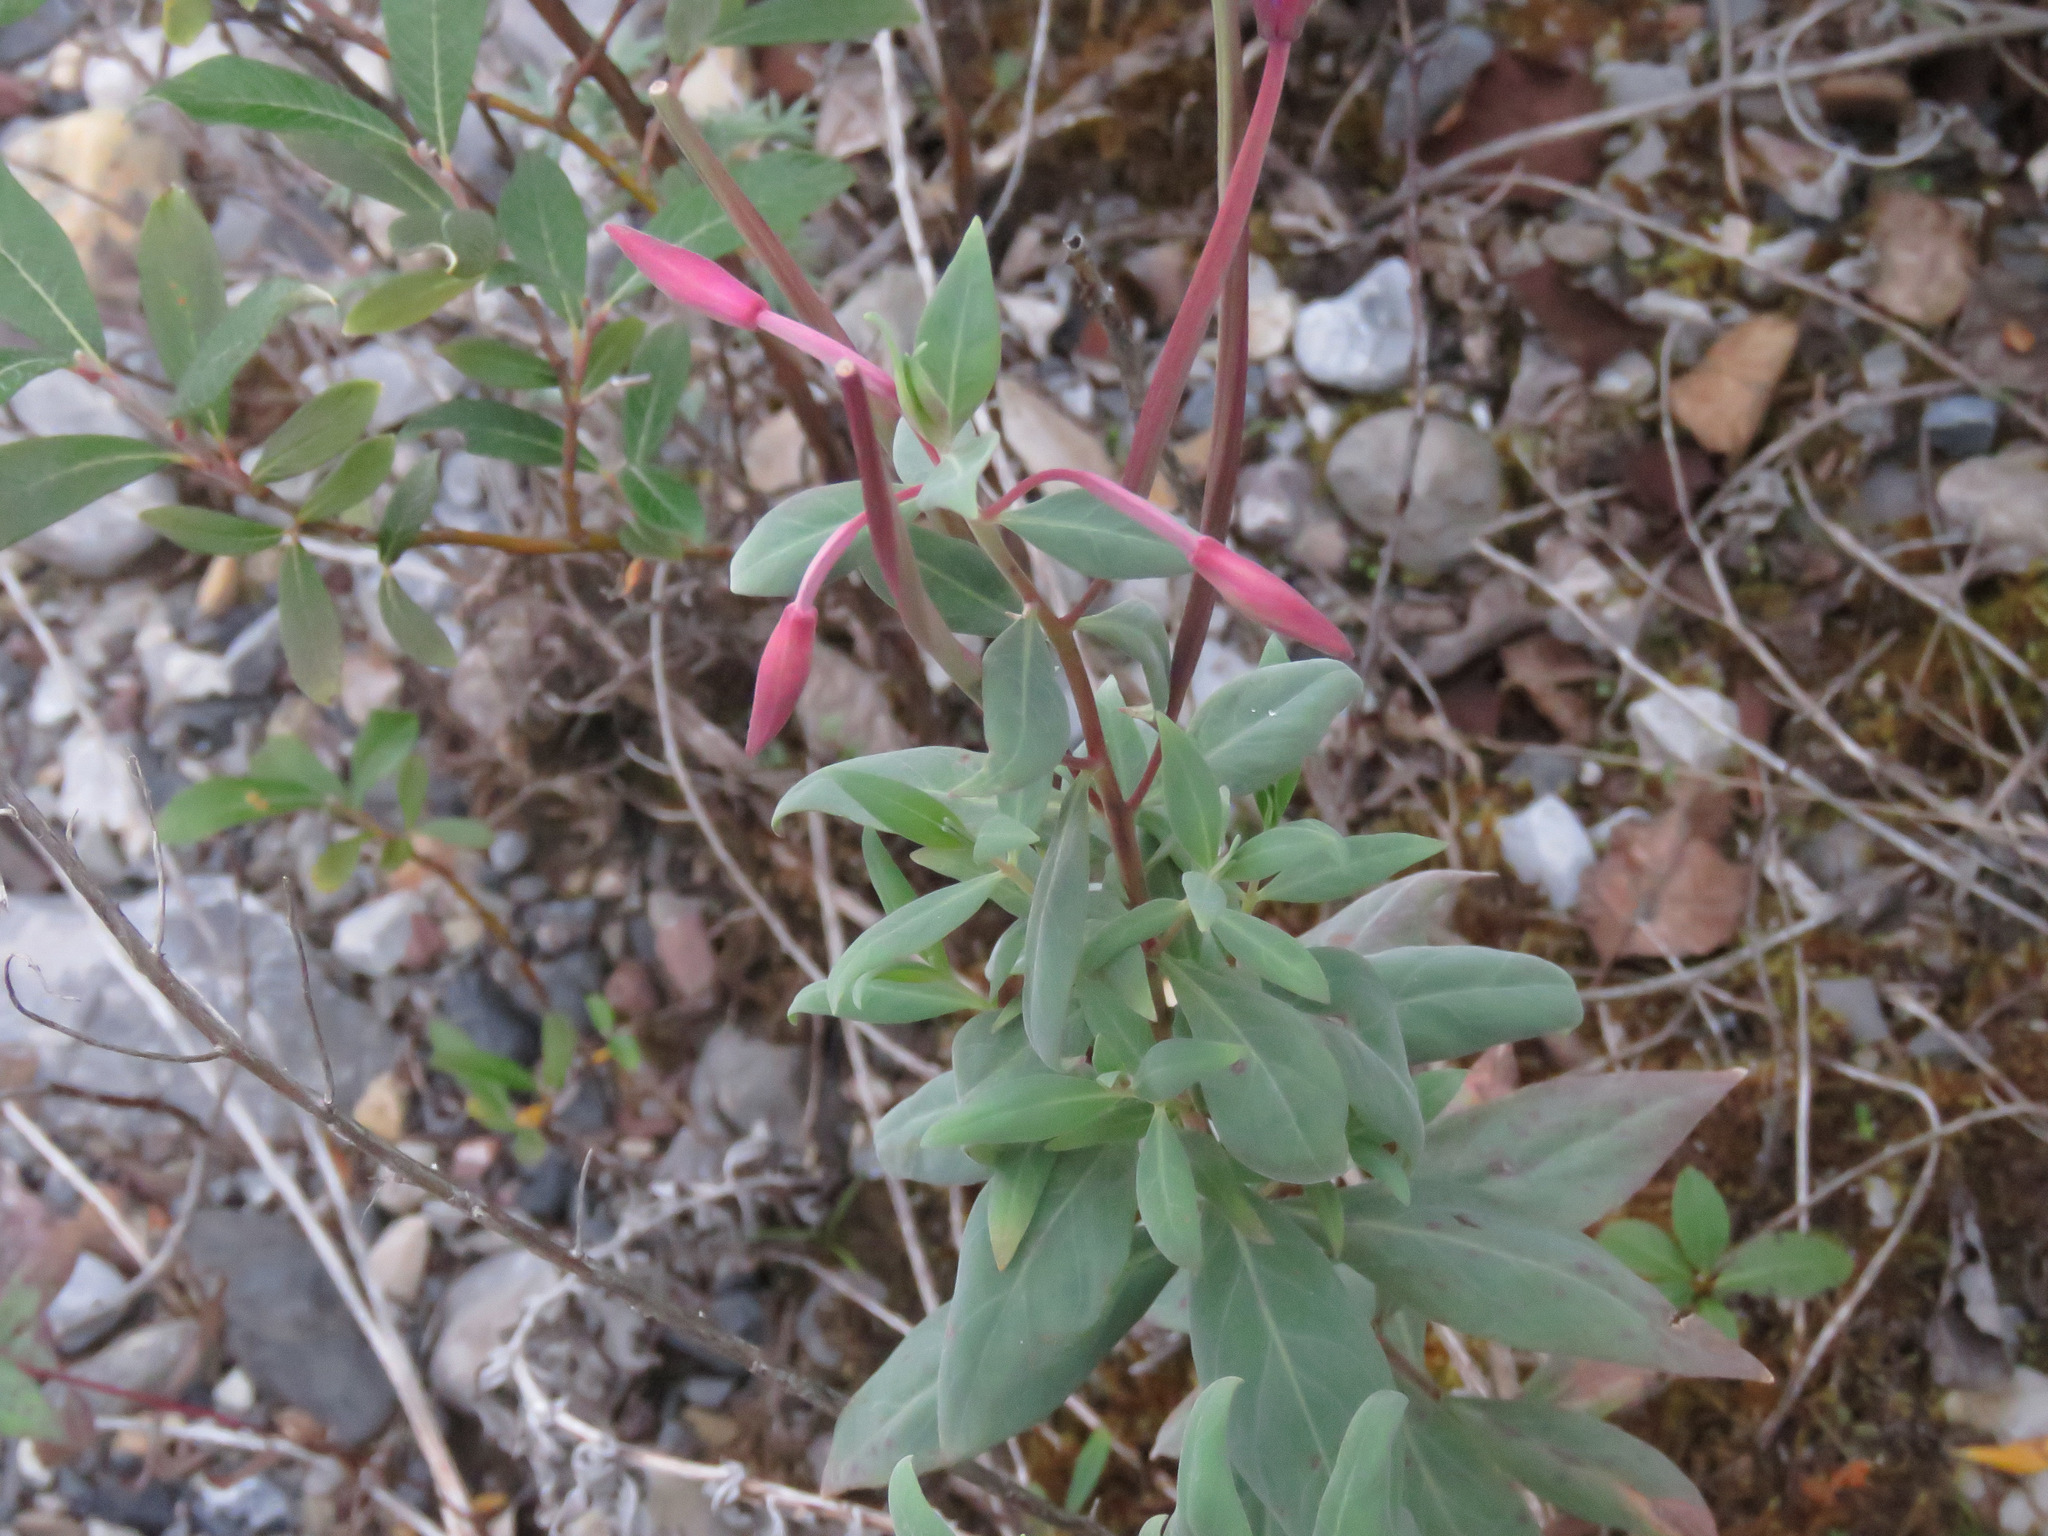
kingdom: Plantae
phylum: Tracheophyta
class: Magnoliopsida
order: Myrtales
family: Onagraceae
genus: Chamaenerion
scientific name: Chamaenerion latifolium
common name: Dwarf fireweed
